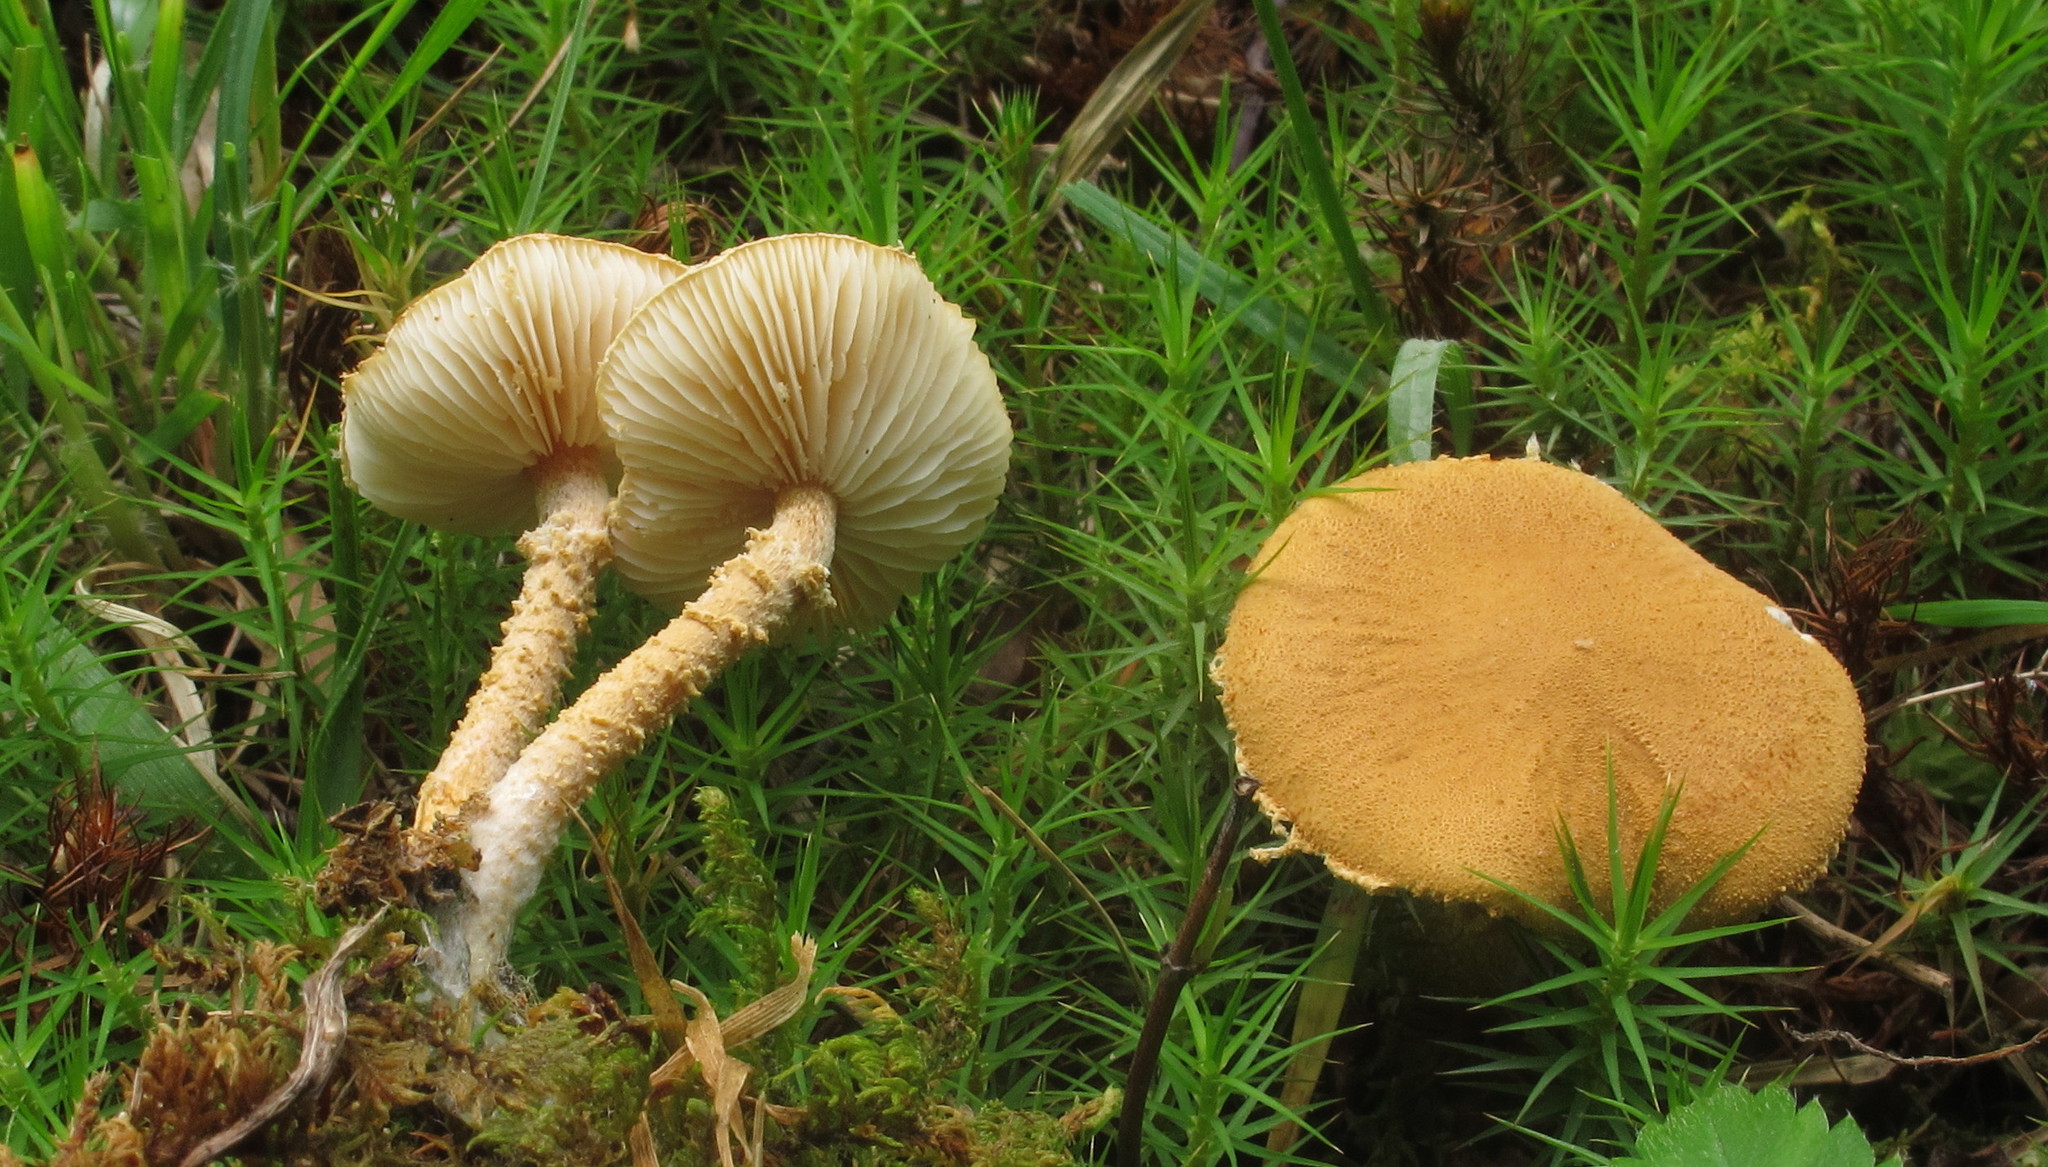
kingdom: Fungi
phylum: Basidiomycota
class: Agaricomycetes
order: Agaricales
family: Tricholomataceae
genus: Cystoderma
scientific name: Cystoderma amianthinum
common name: Earthy powdercap
